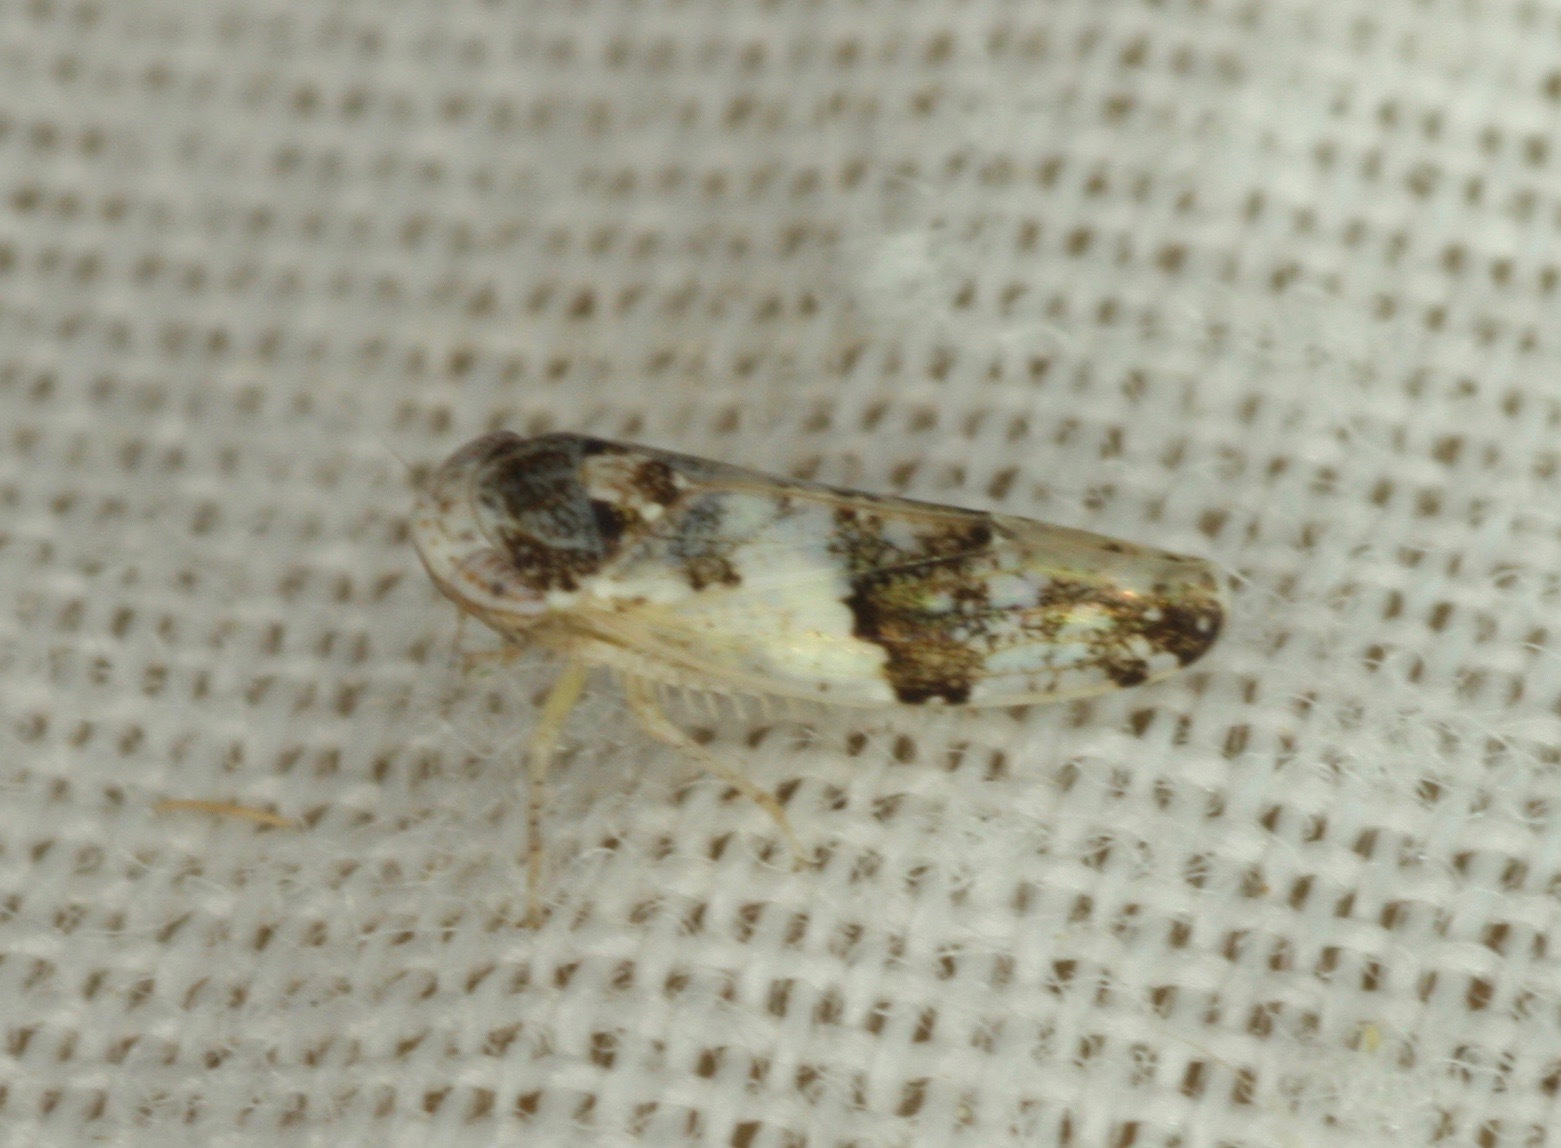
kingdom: Animalia
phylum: Arthropoda
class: Insecta
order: Hemiptera
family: Cicadellidae
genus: Norvellina
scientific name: Norvellina scitula
